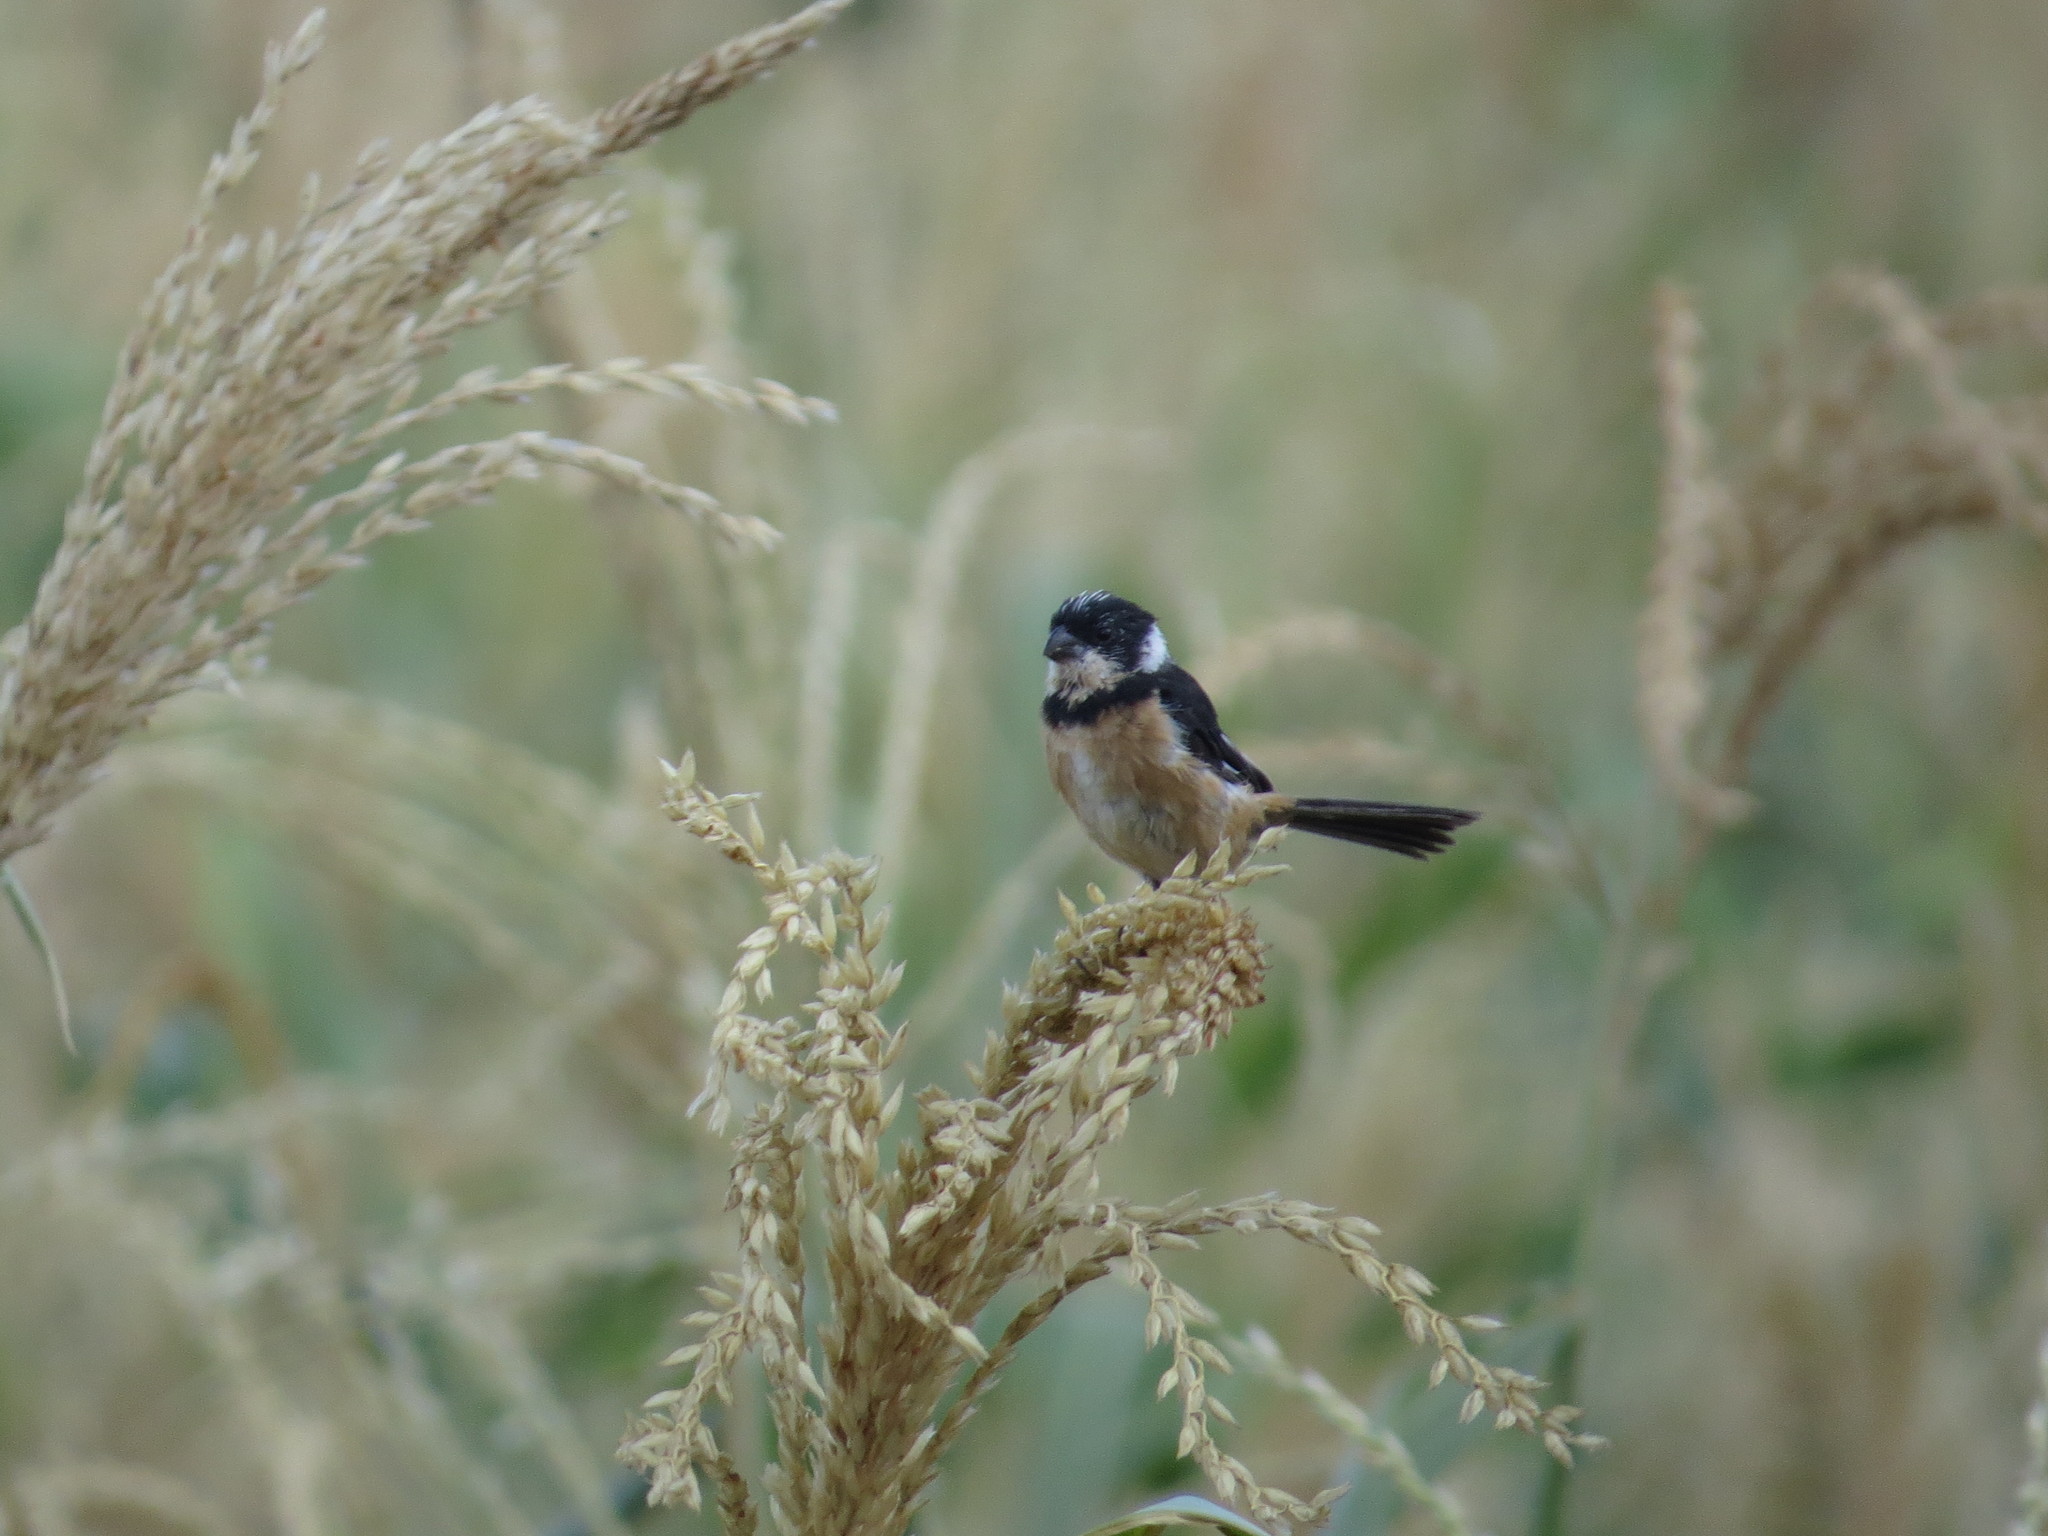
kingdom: Animalia
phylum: Chordata
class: Aves
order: Passeriformes
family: Thraupidae
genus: Sporophila
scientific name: Sporophila torqueola
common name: White-collared seedeater
